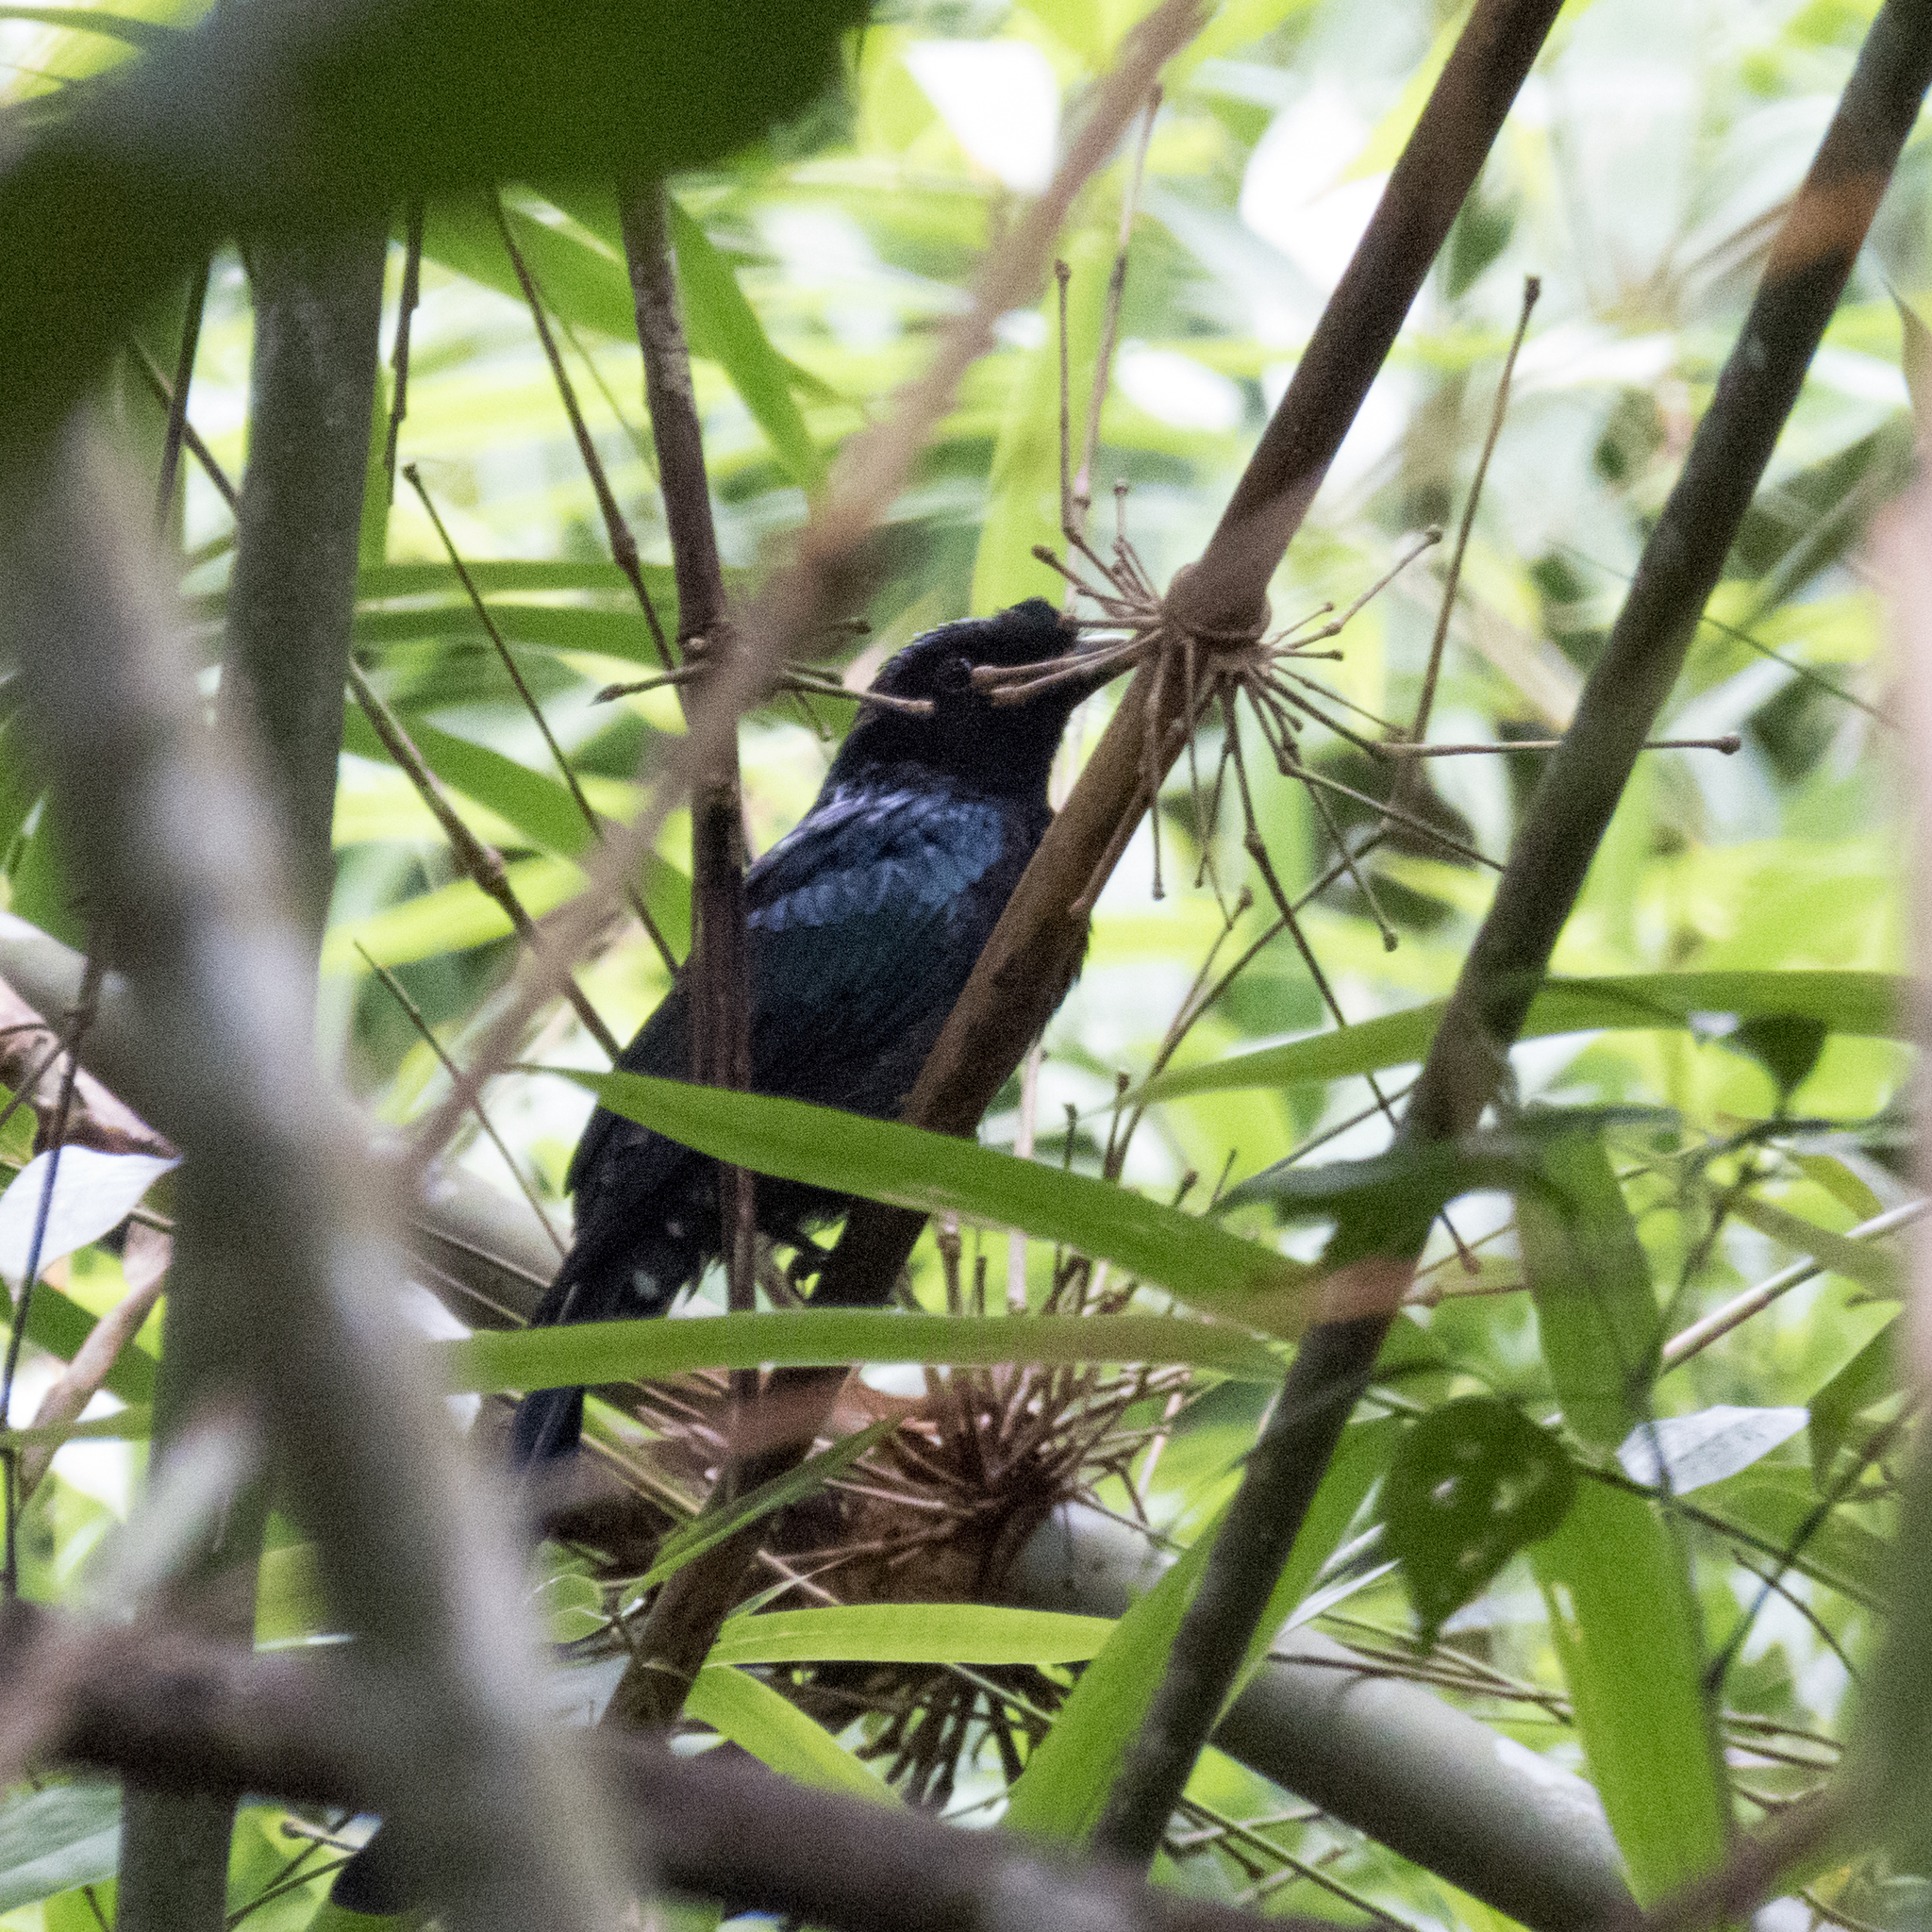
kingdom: Animalia
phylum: Chordata
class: Aves
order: Passeriformes
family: Dicruridae
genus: Dicrurus
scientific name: Dicrurus paradiseus
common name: Greater racket-tailed drongo
